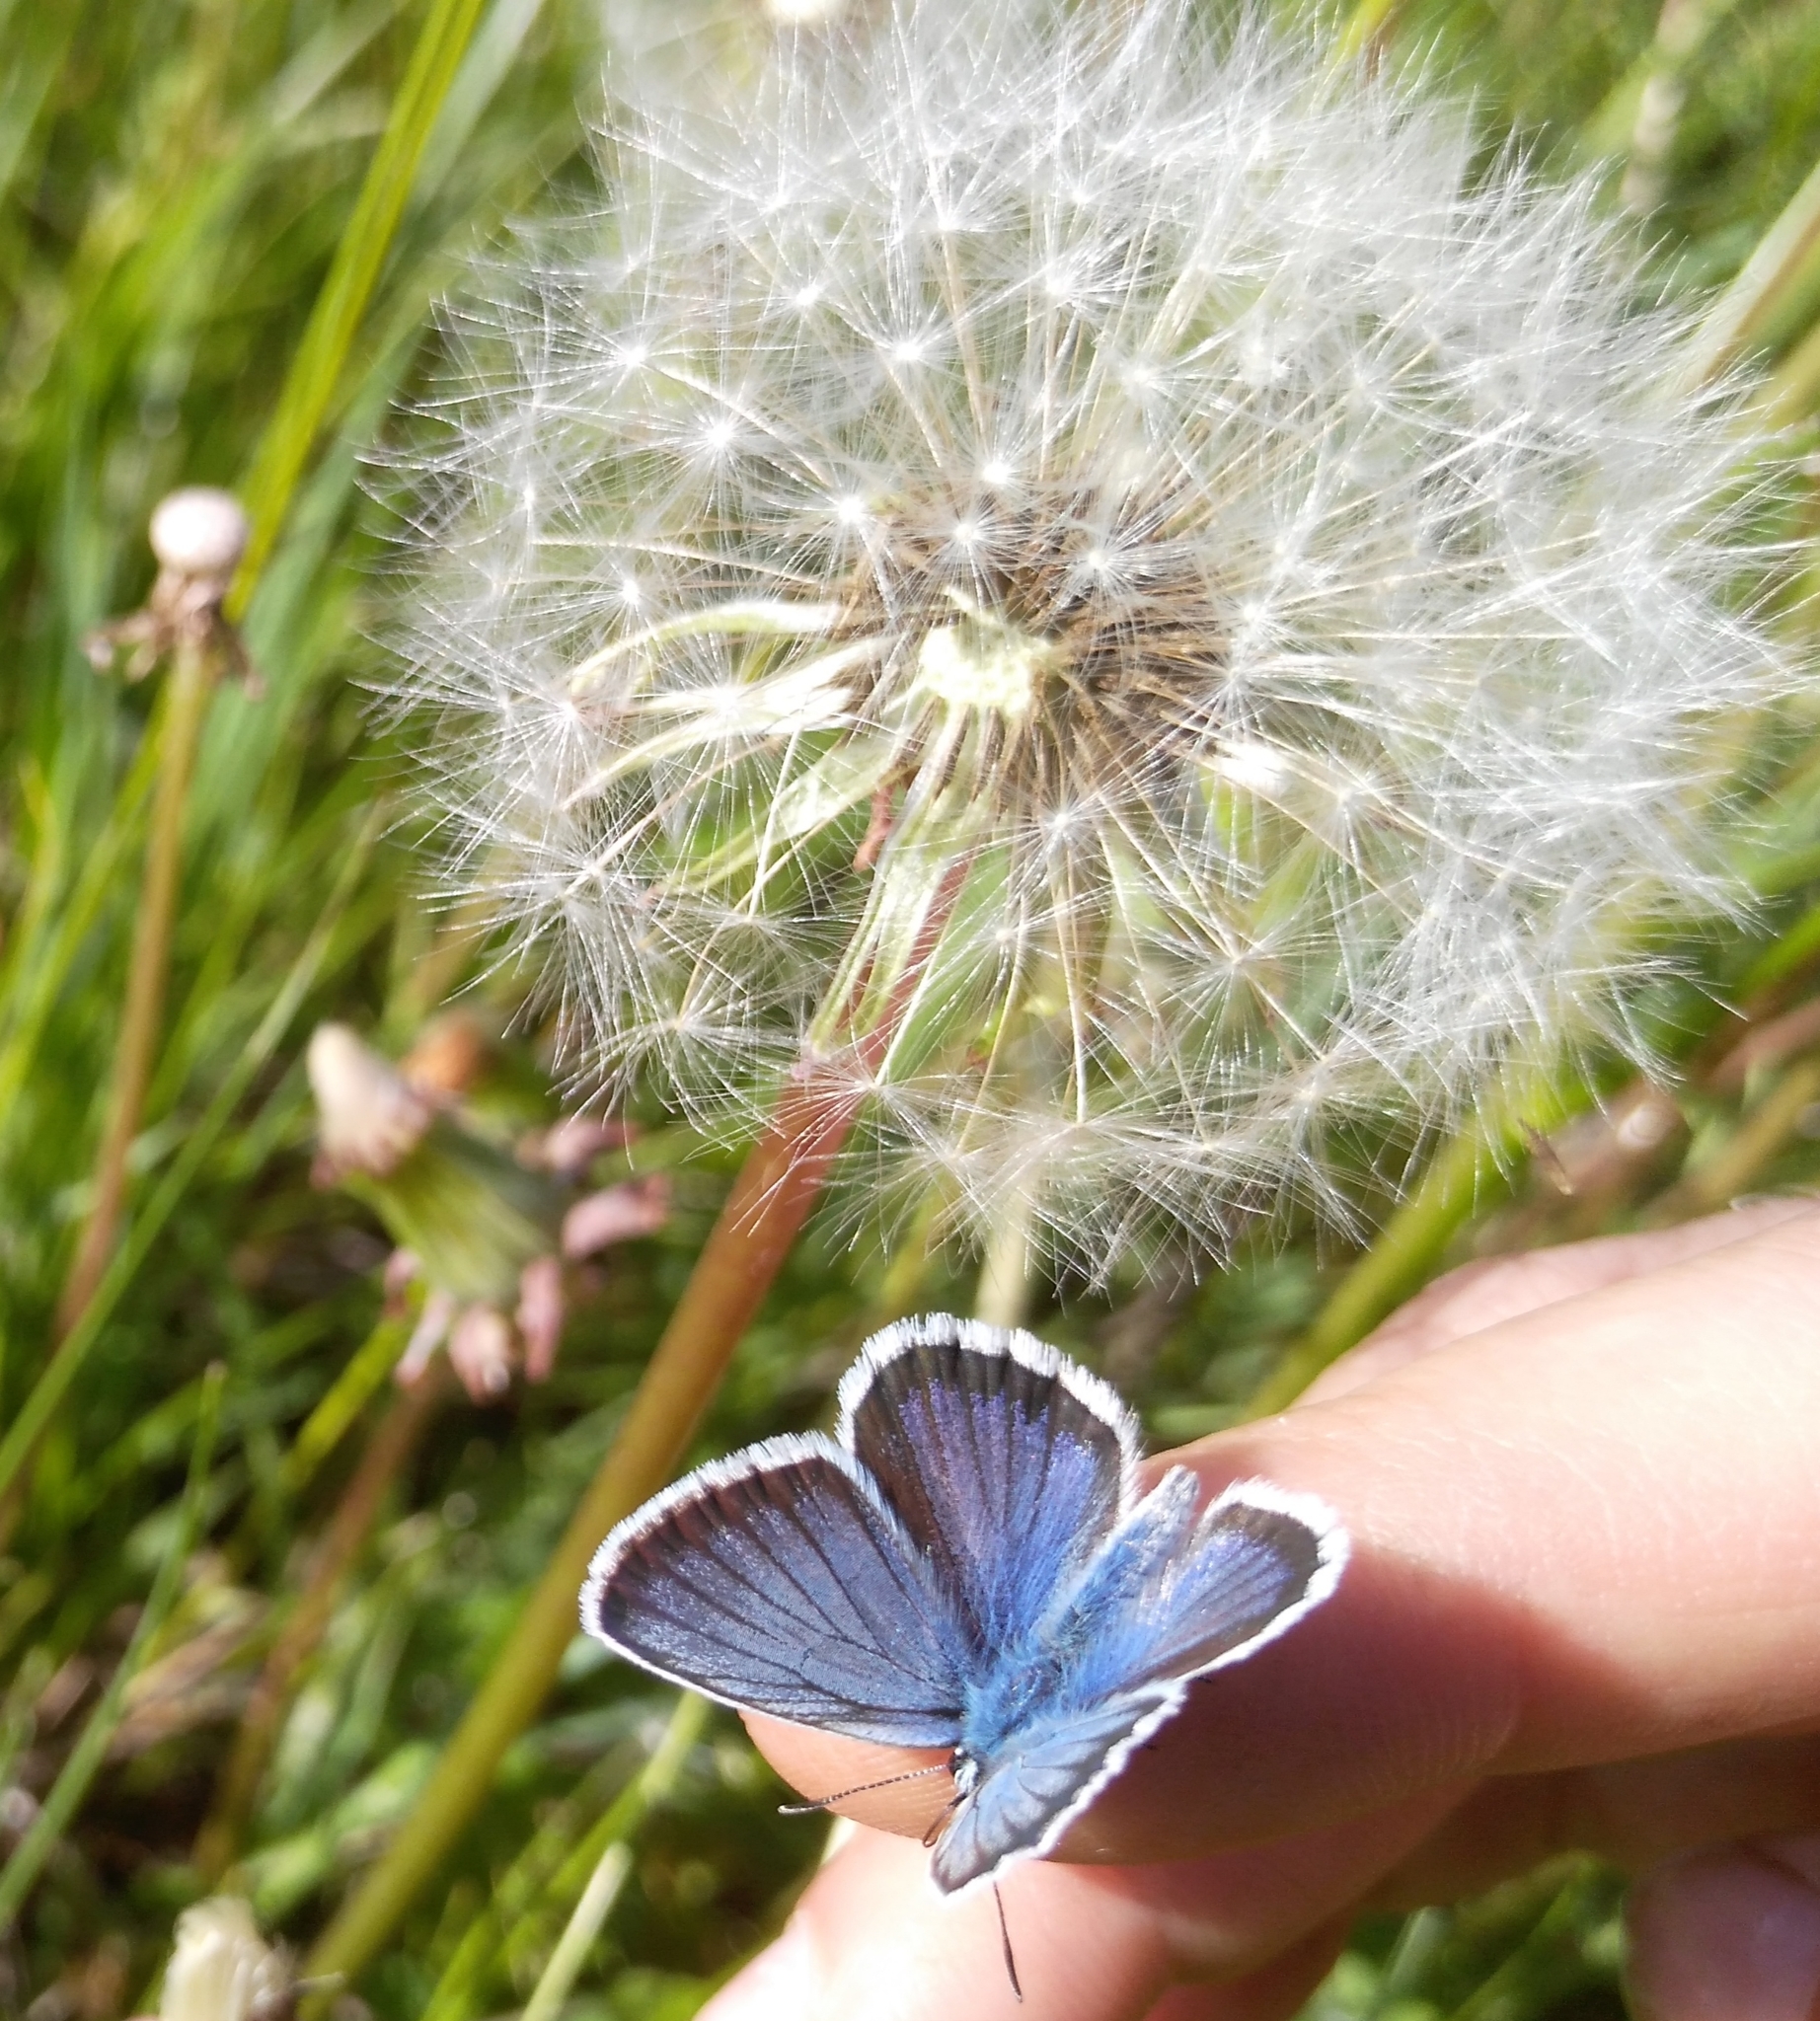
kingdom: Animalia
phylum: Arthropoda
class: Insecta
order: Lepidoptera
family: Lycaenidae
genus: Plebejus
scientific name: Plebejus argus
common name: Silver-studded blue
